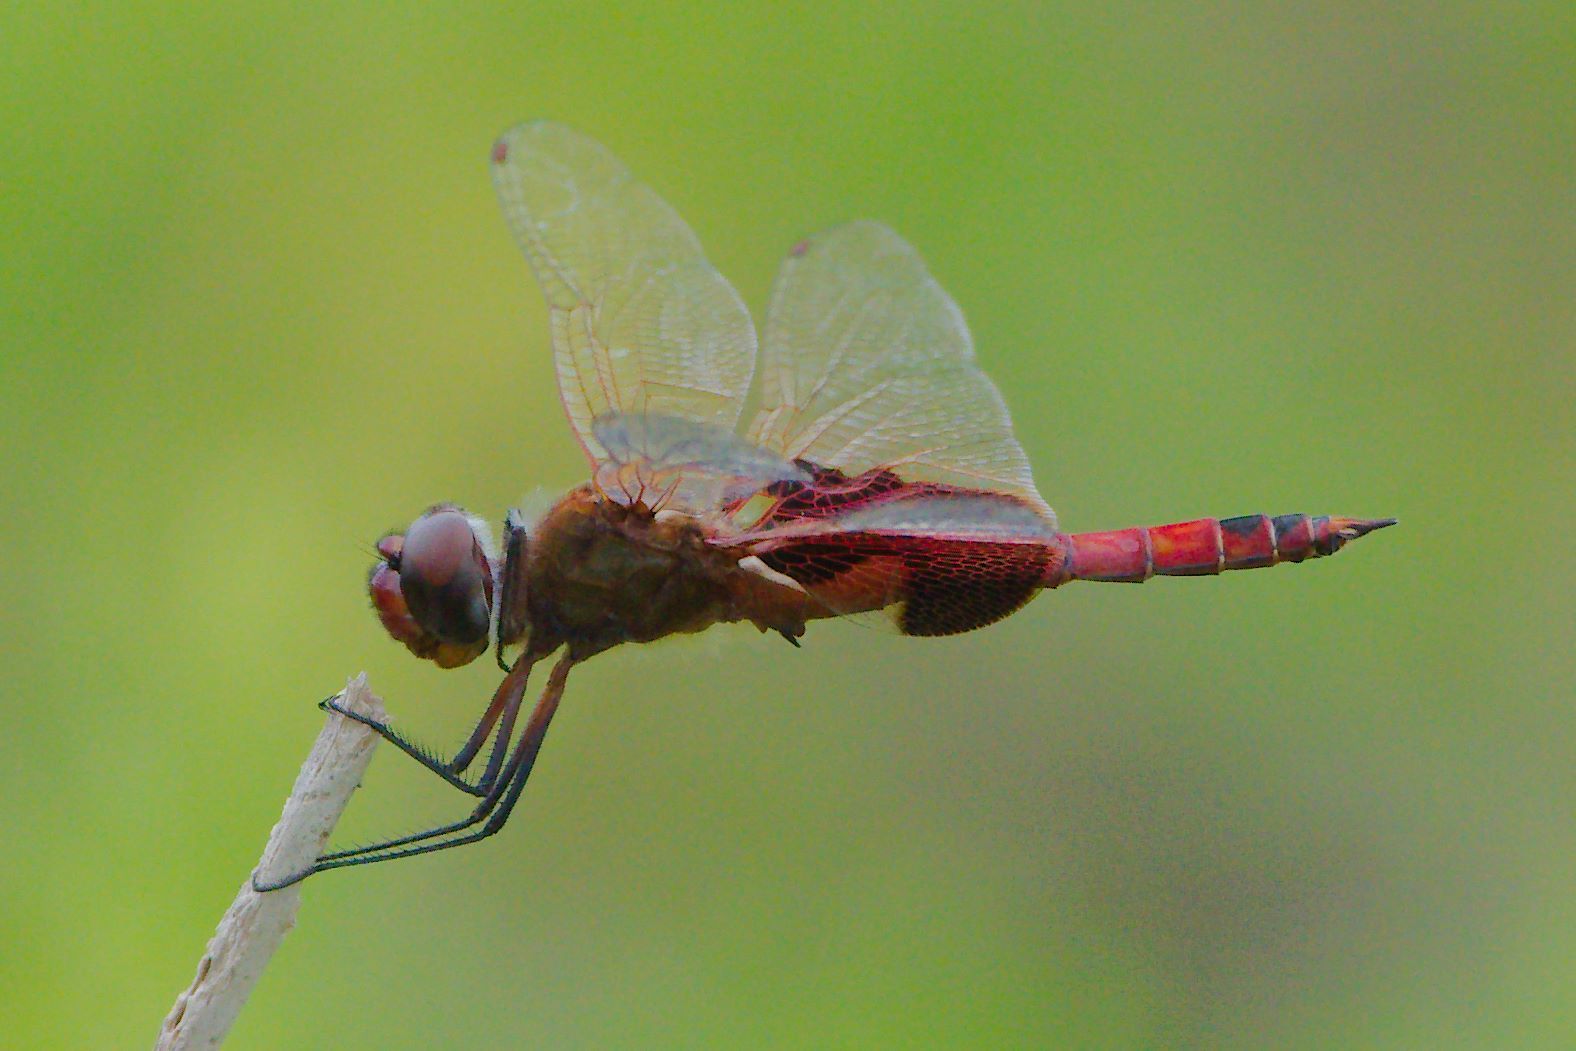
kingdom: Animalia
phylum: Arthropoda
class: Insecta
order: Odonata
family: Libellulidae
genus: Tramea
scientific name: Tramea onusta
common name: Red saddlebags
